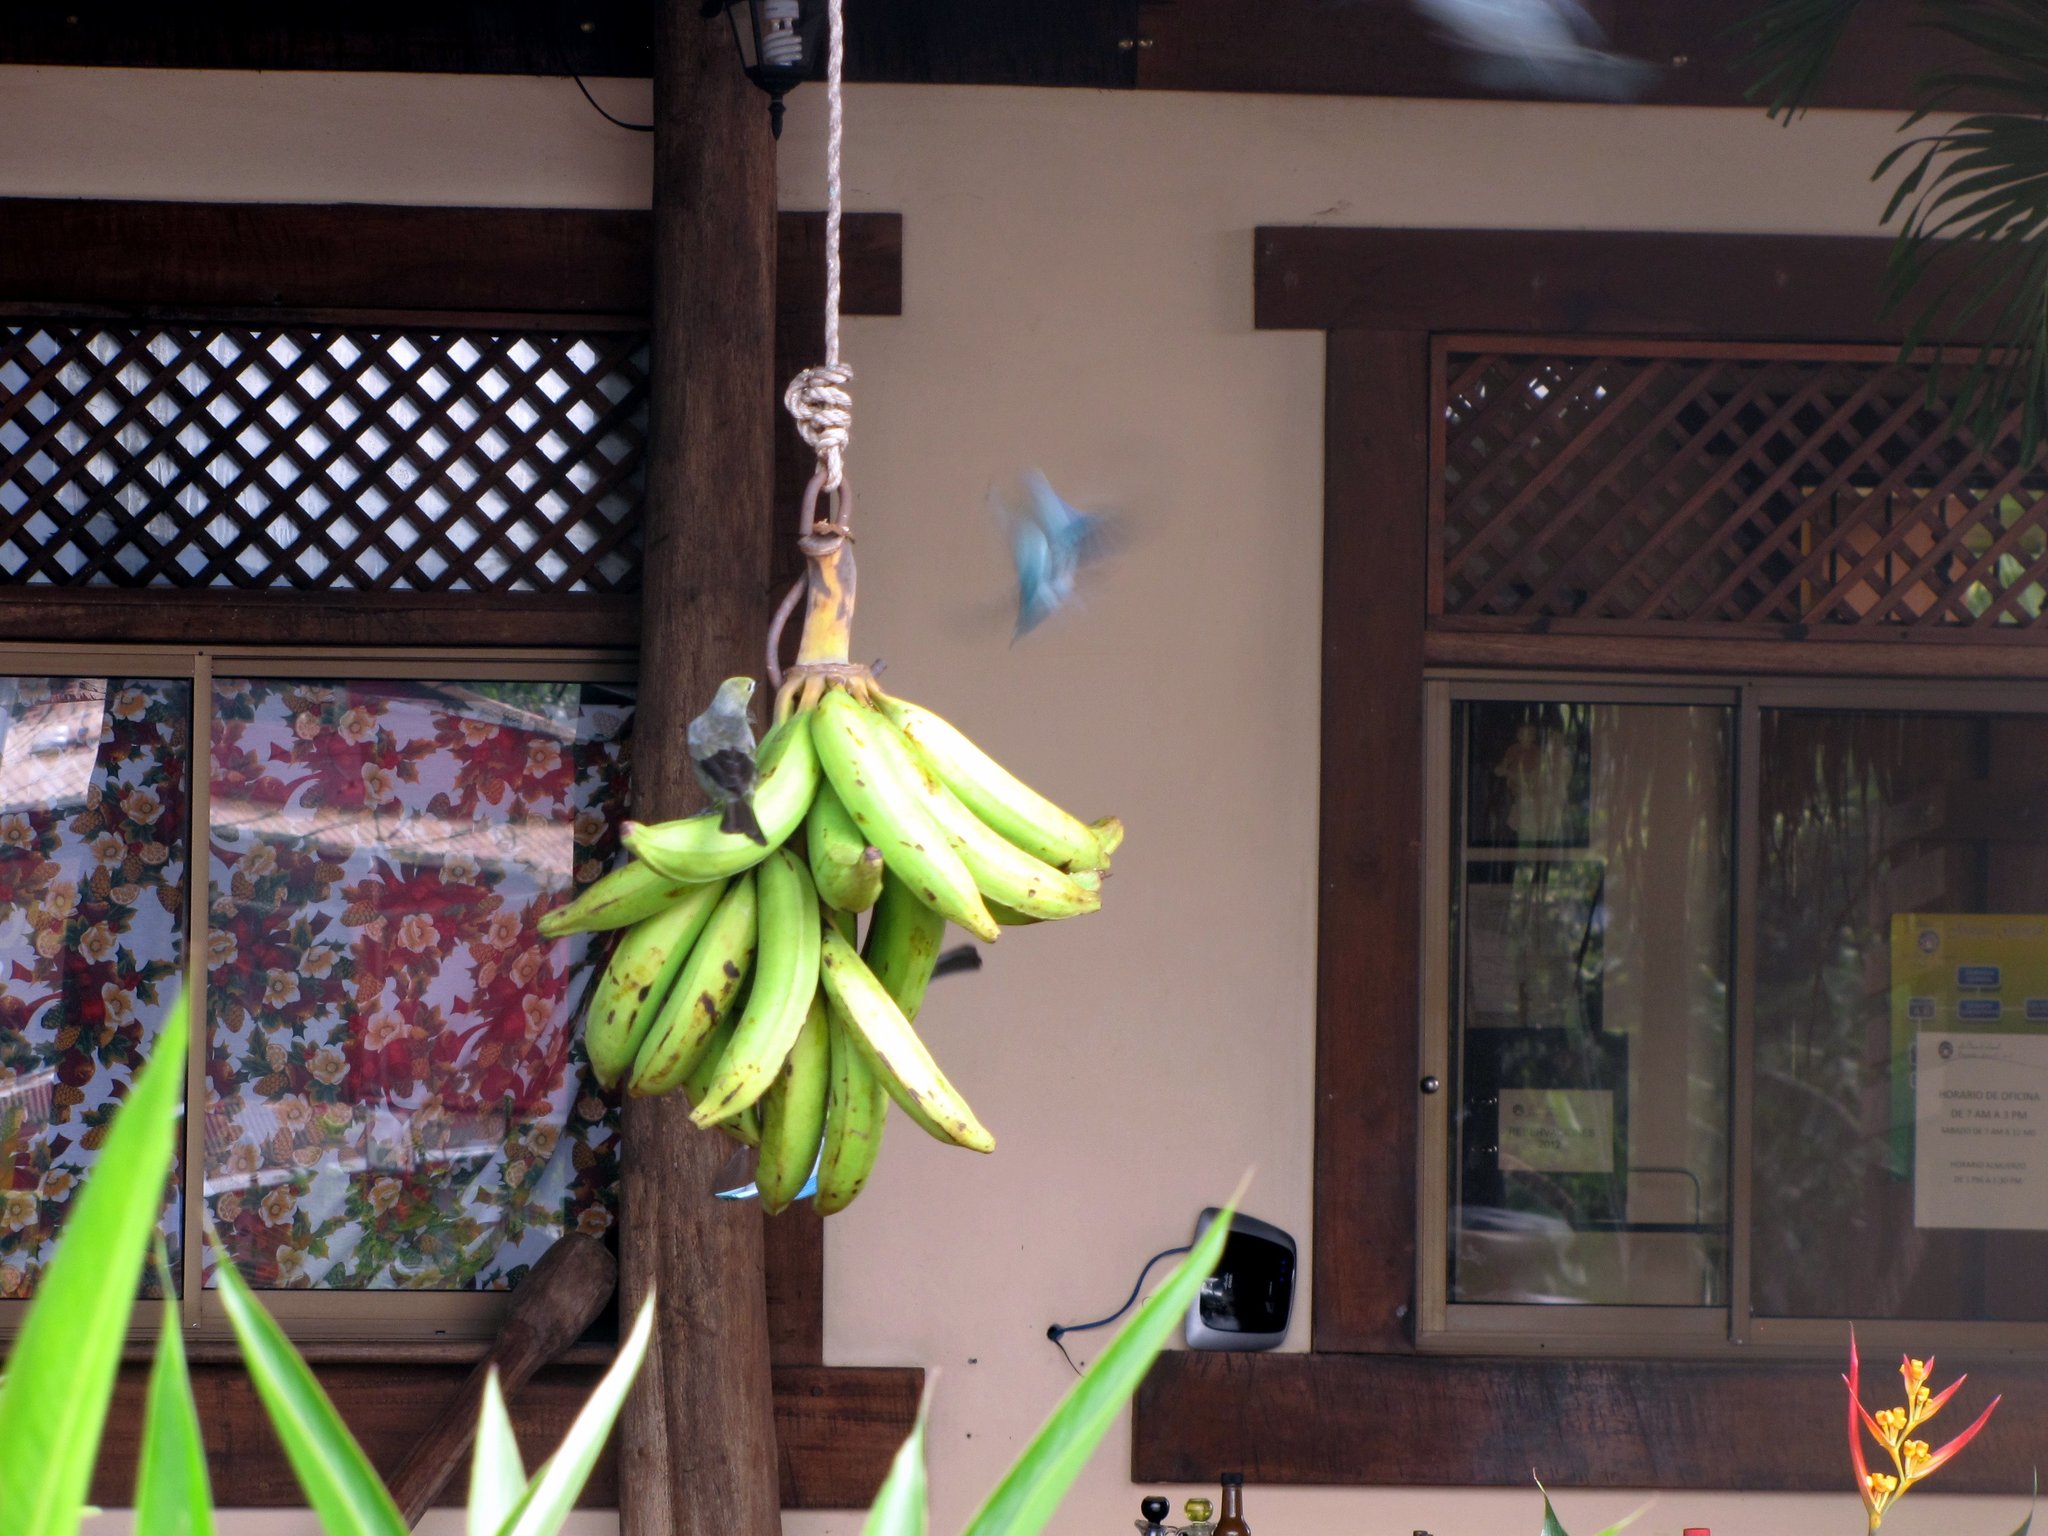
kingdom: Animalia
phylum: Chordata
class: Aves
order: Passeriformes
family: Thraupidae
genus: Thraupis
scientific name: Thraupis palmarum
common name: Palm tanager
